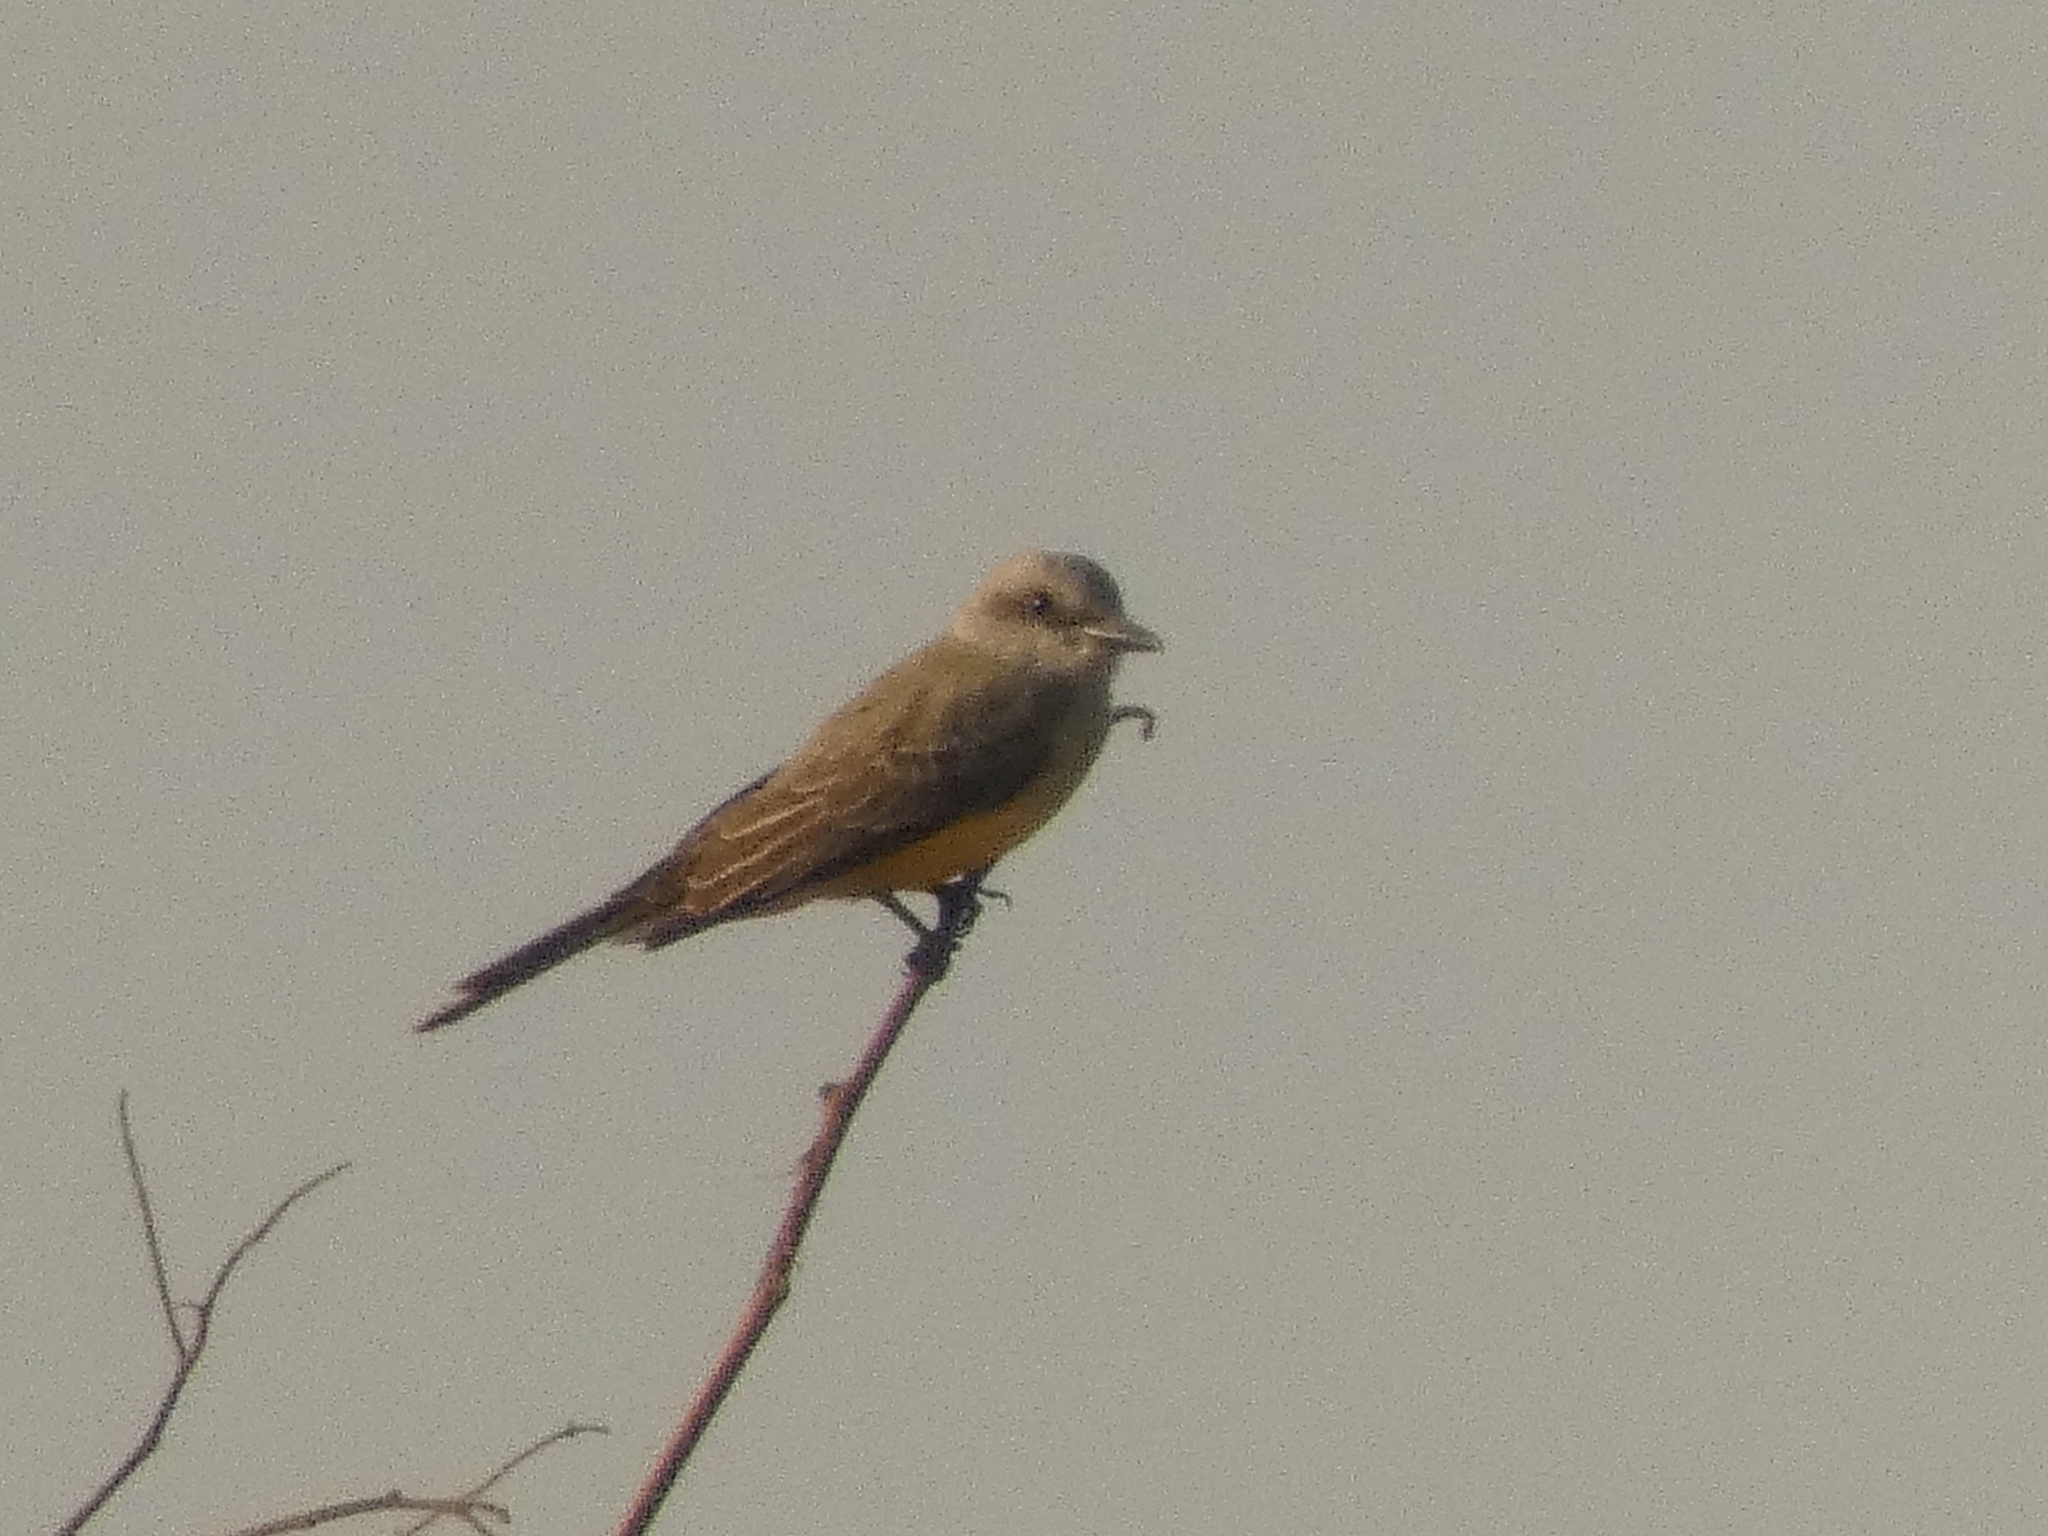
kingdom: Animalia
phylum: Chordata
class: Aves
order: Passeriformes
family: Tyrannidae
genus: Tyrannus
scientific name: Tyrannus melancholicus
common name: Tropical kingbird
